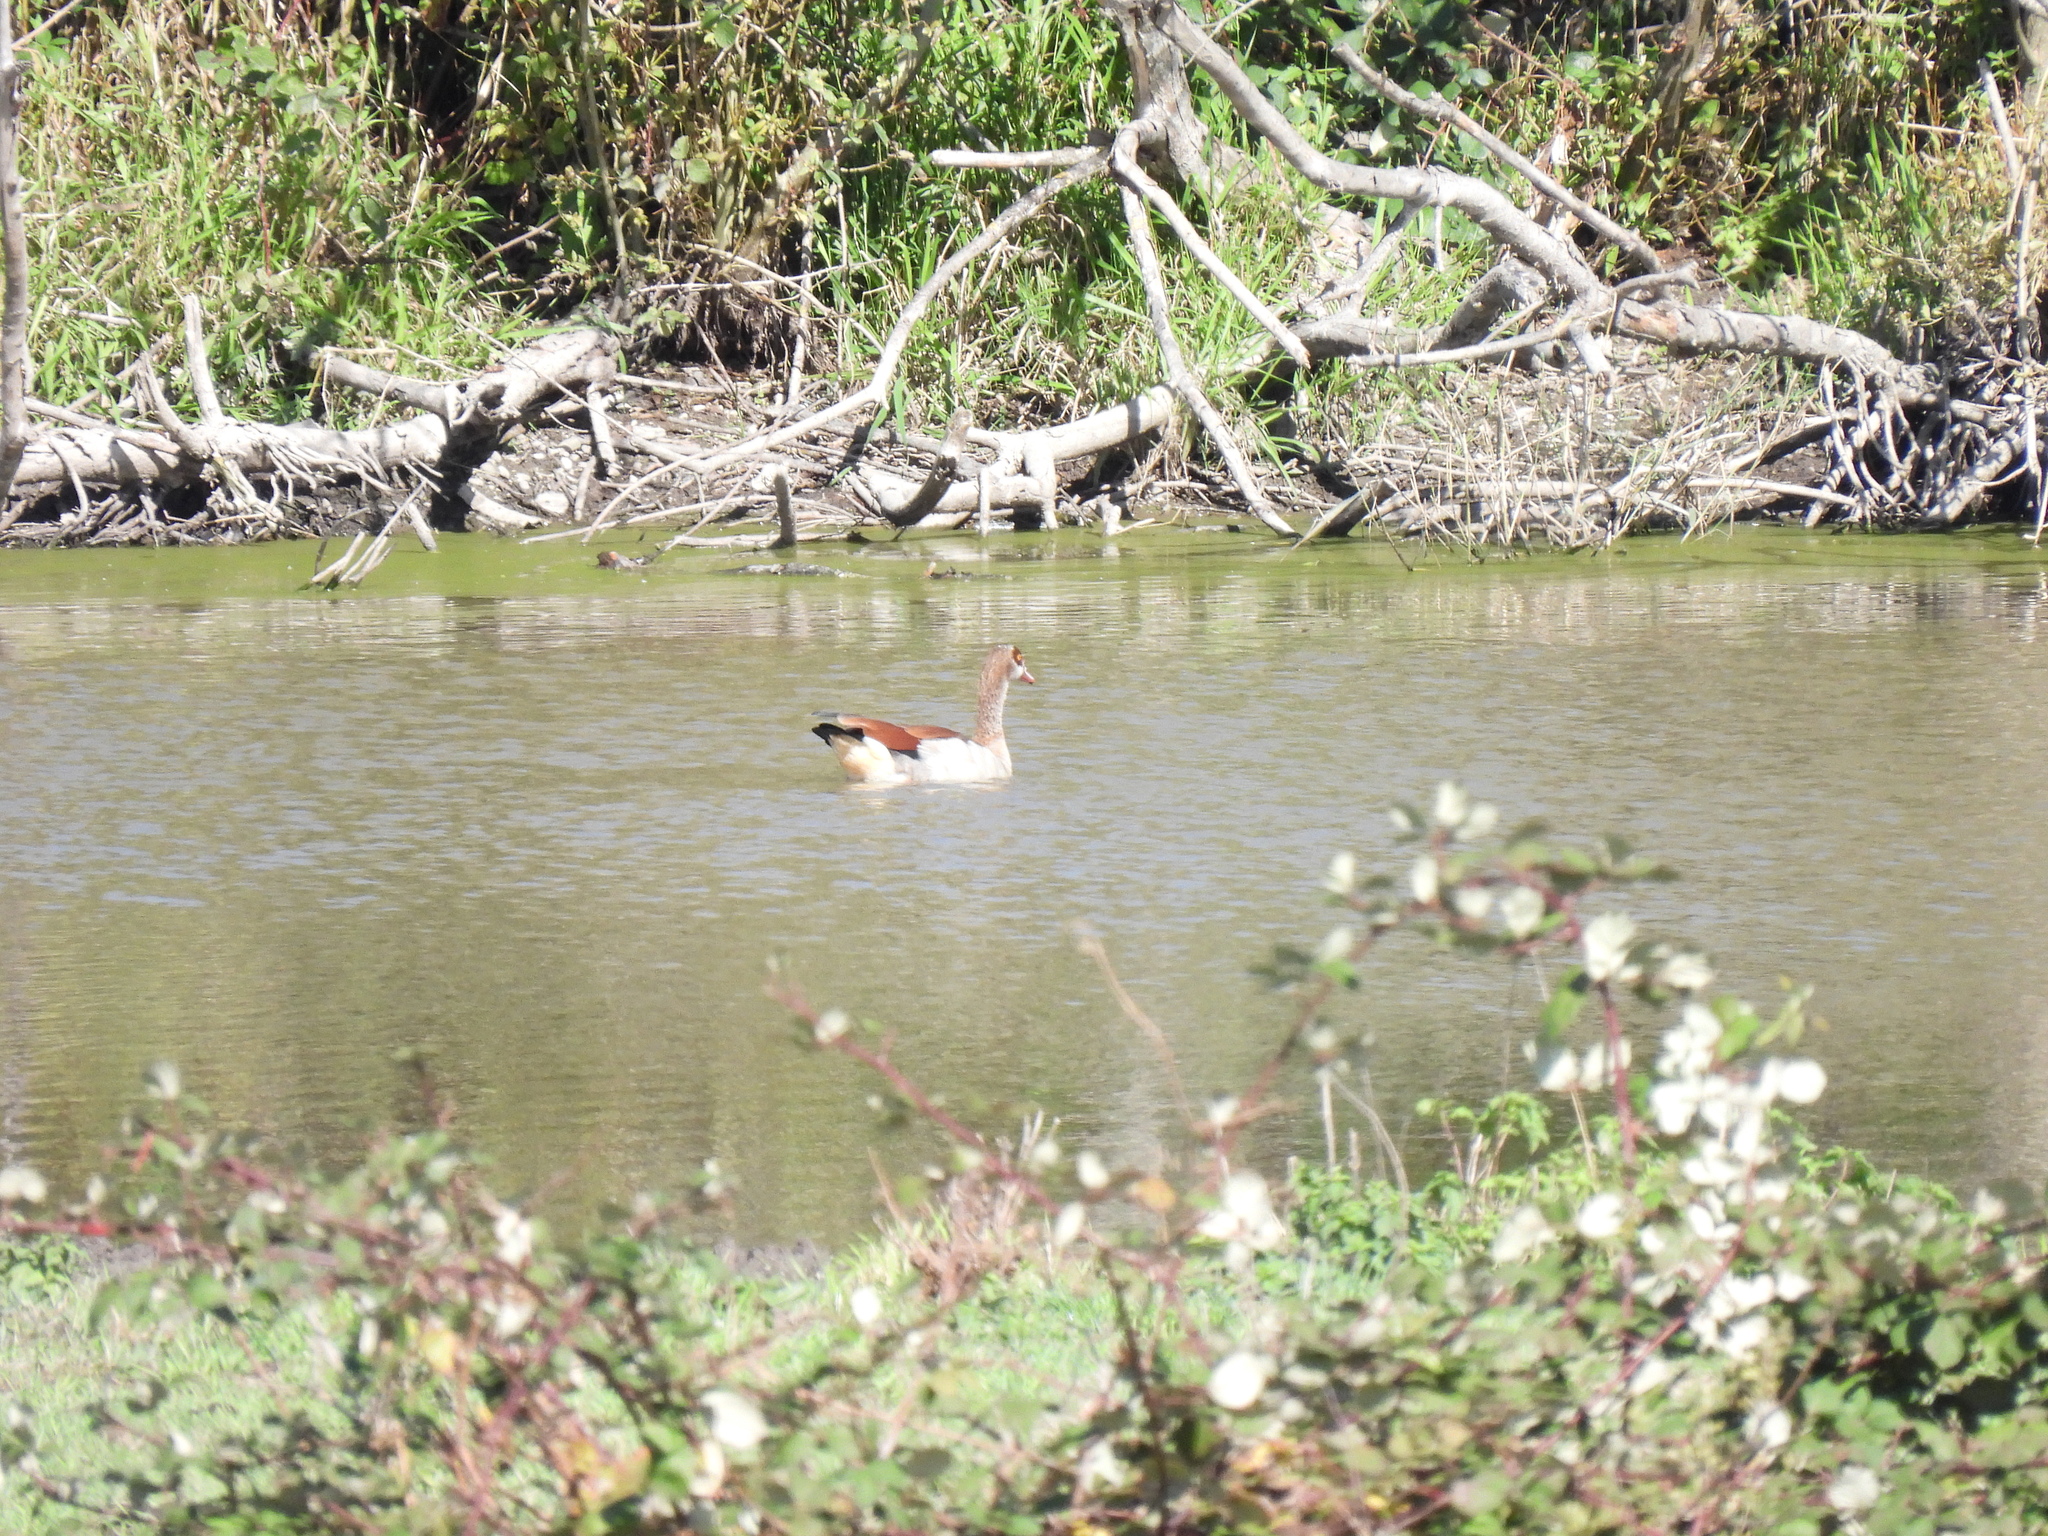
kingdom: Animalia
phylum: Chordata
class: Aves
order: Anseriformes
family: Anatidae
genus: Alopochen
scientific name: Alopochen aegyptiaca
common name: Egyptian goose
